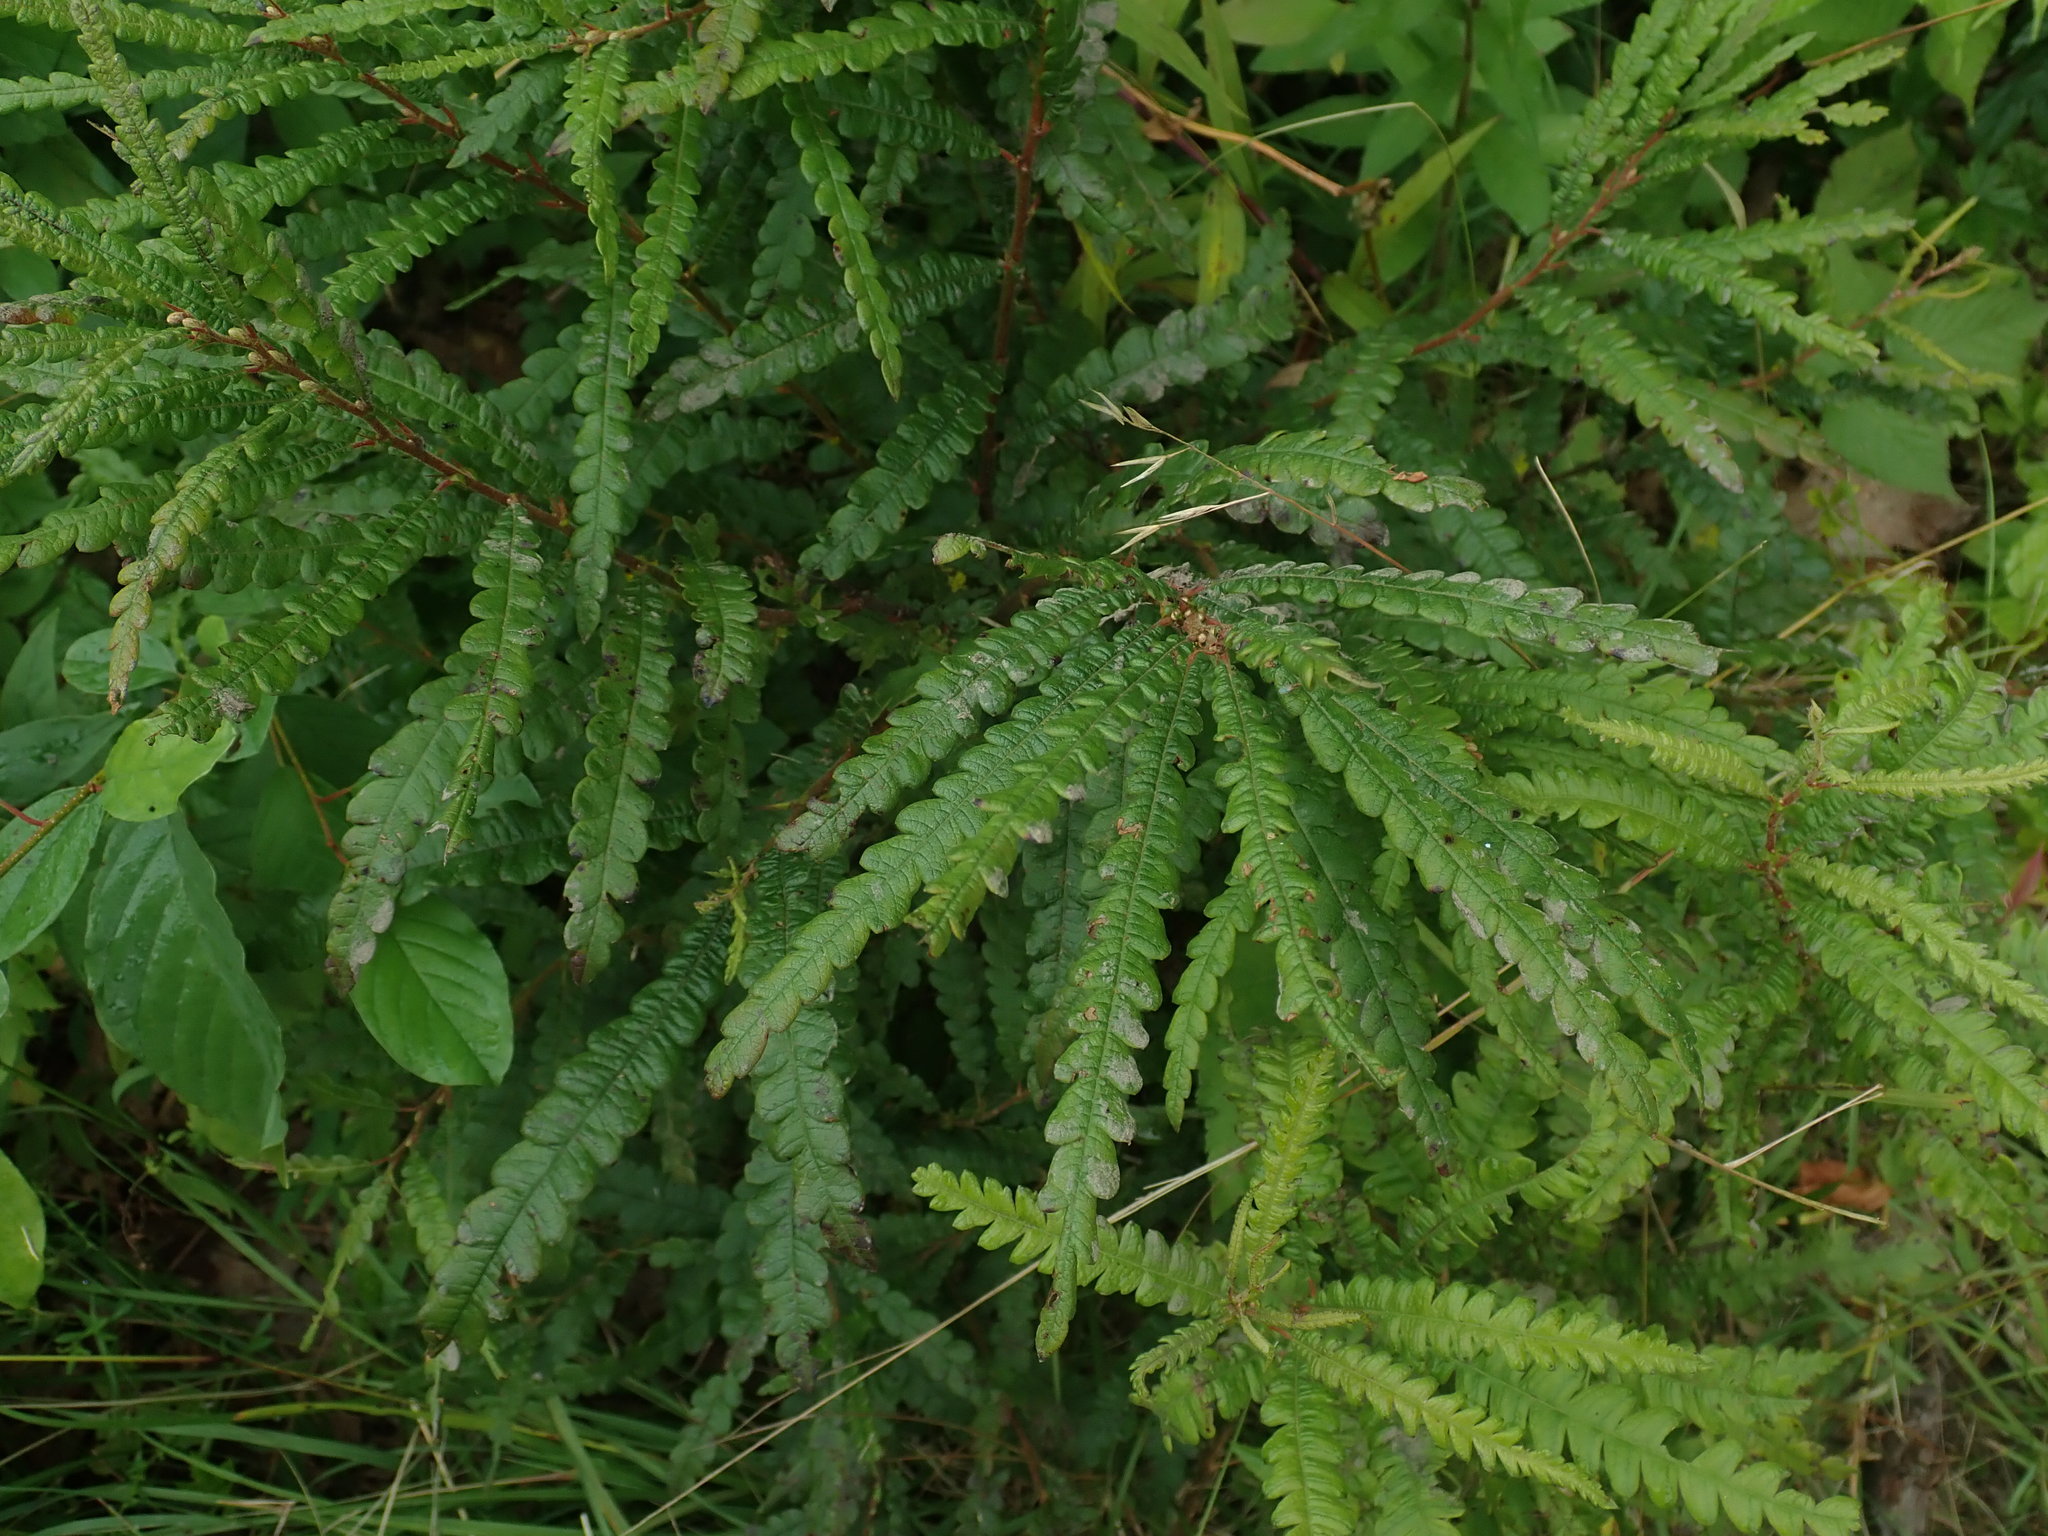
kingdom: Plantae
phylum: Tracheophyta
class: Magnoliopsida
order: Fagales
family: Myricaceae
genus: Comptonia
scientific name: Comptonia peregrina
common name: Sweet-fern
